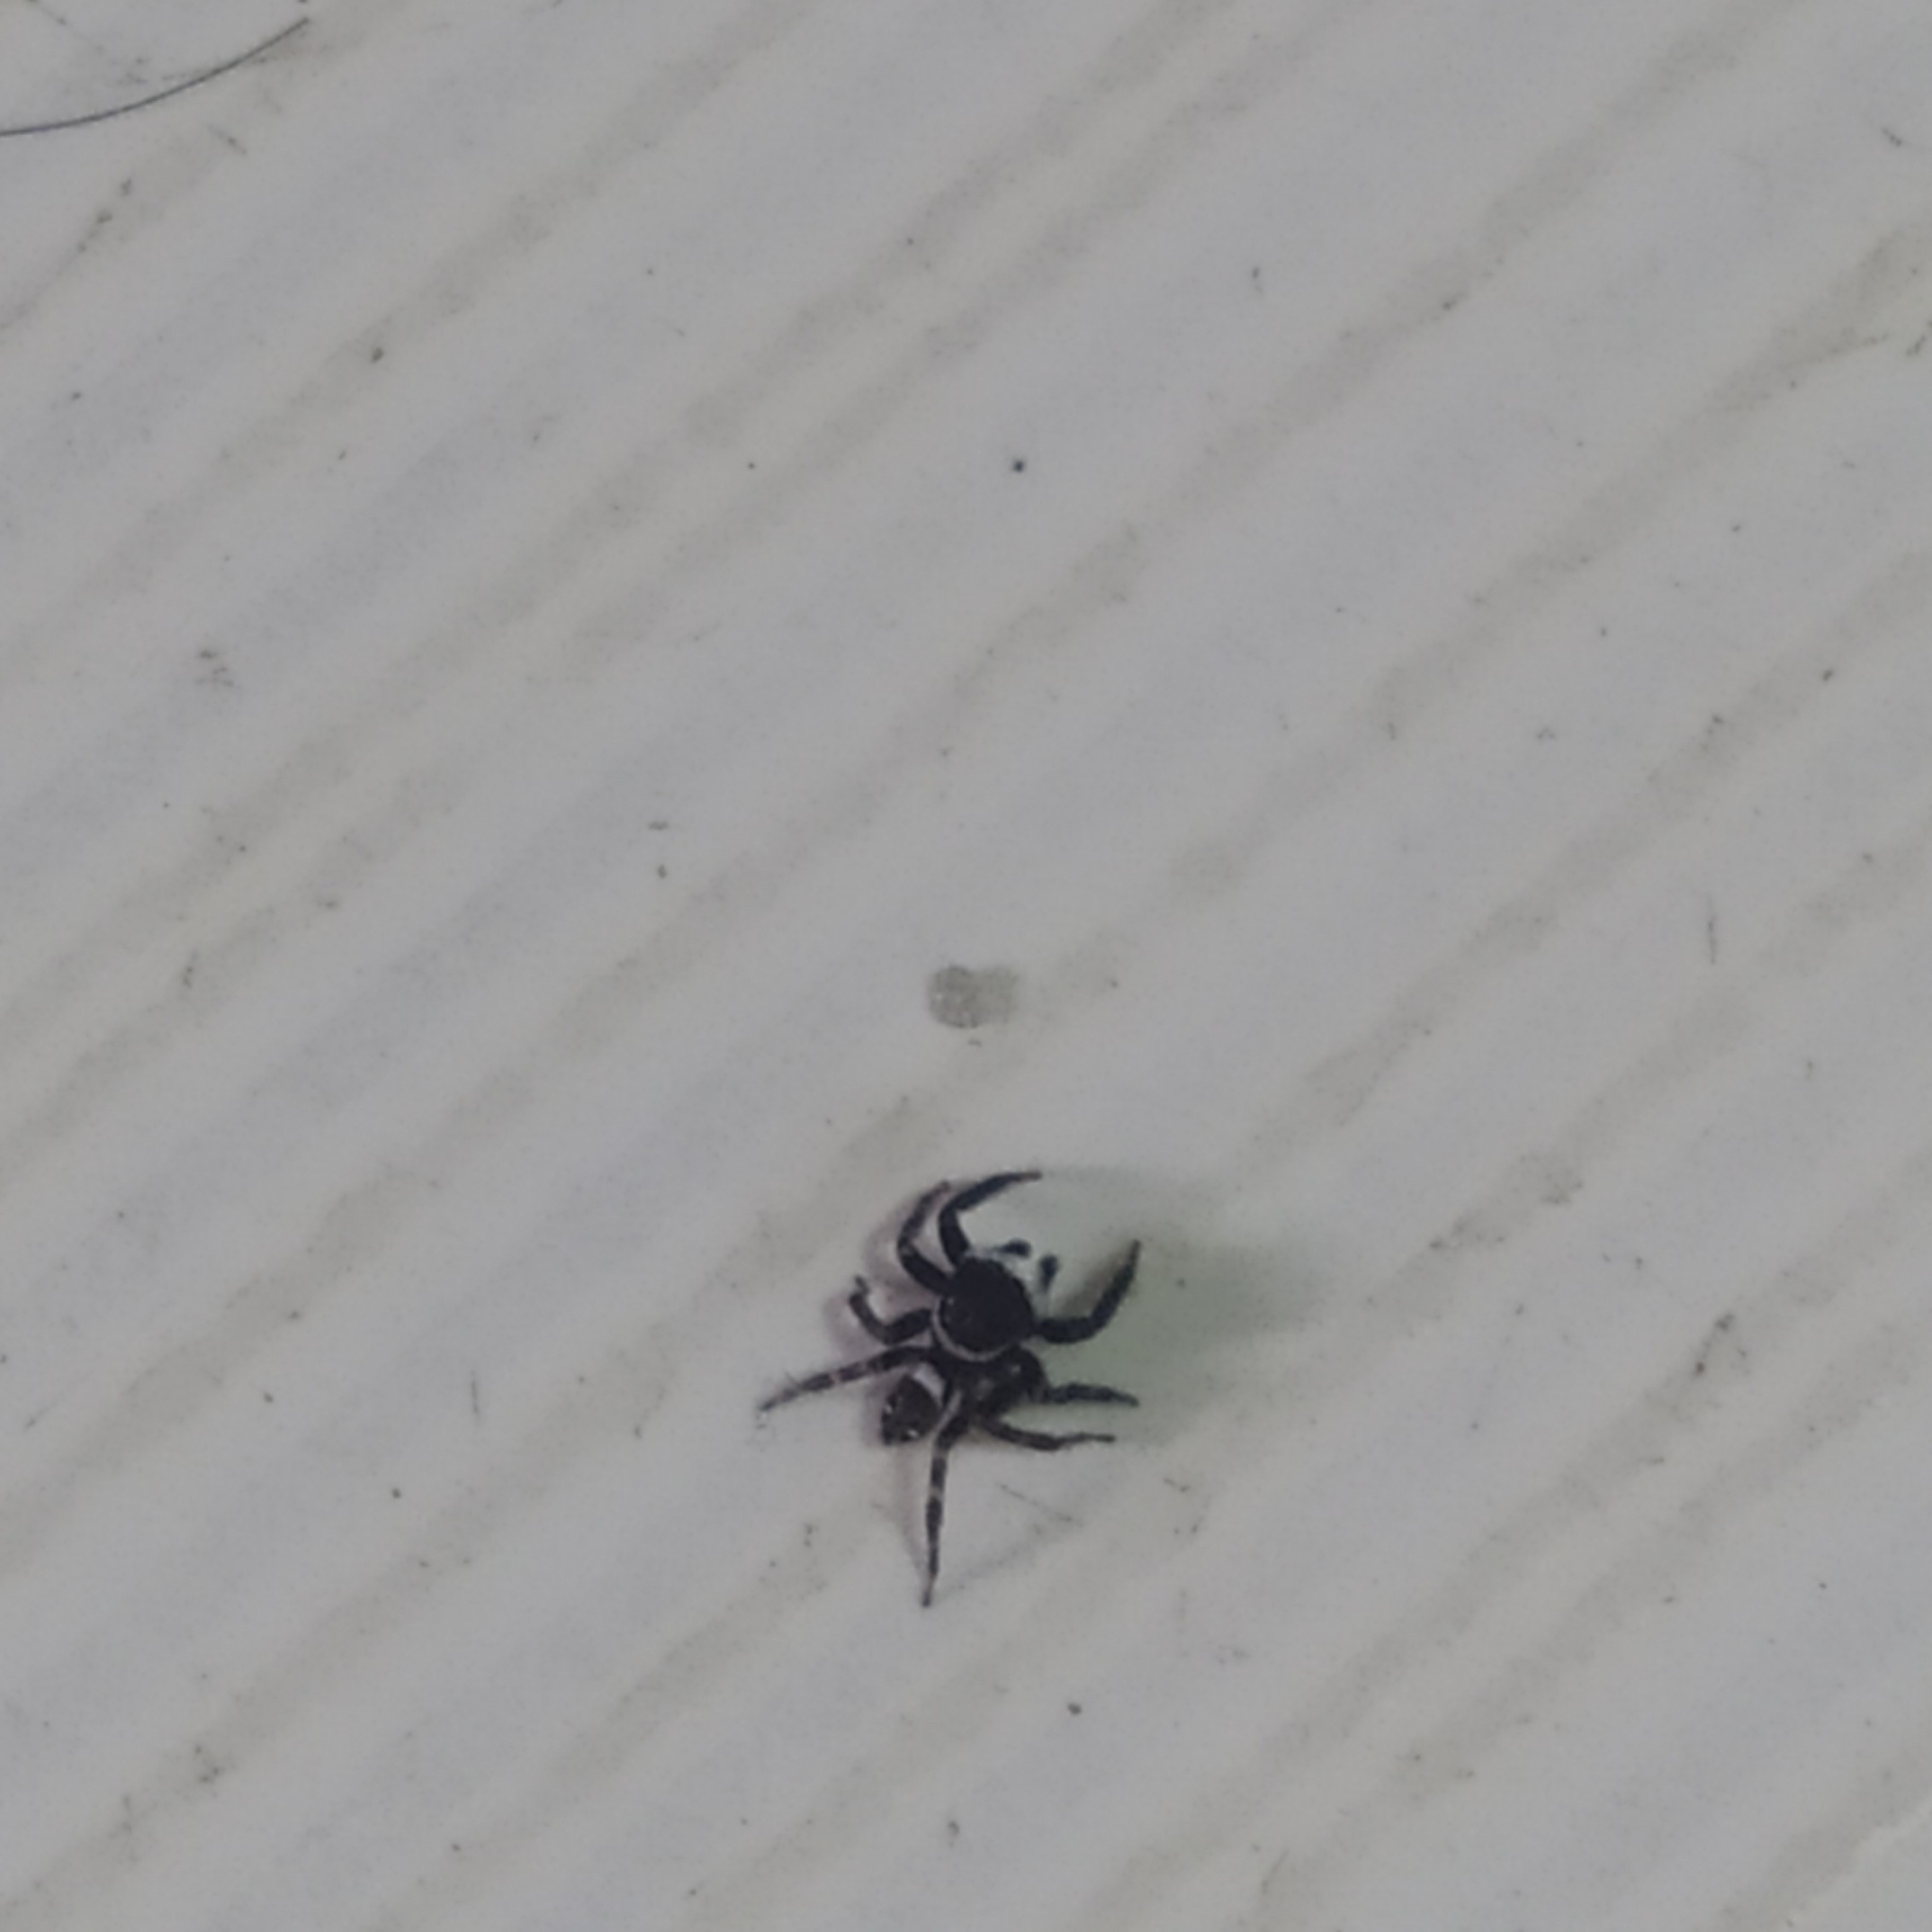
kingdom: Animalia
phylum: Arthropoda
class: Arachnida
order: Araneae
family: Salticidae
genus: Hasarius
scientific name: Hasarius adansoni
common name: Jumping spider
